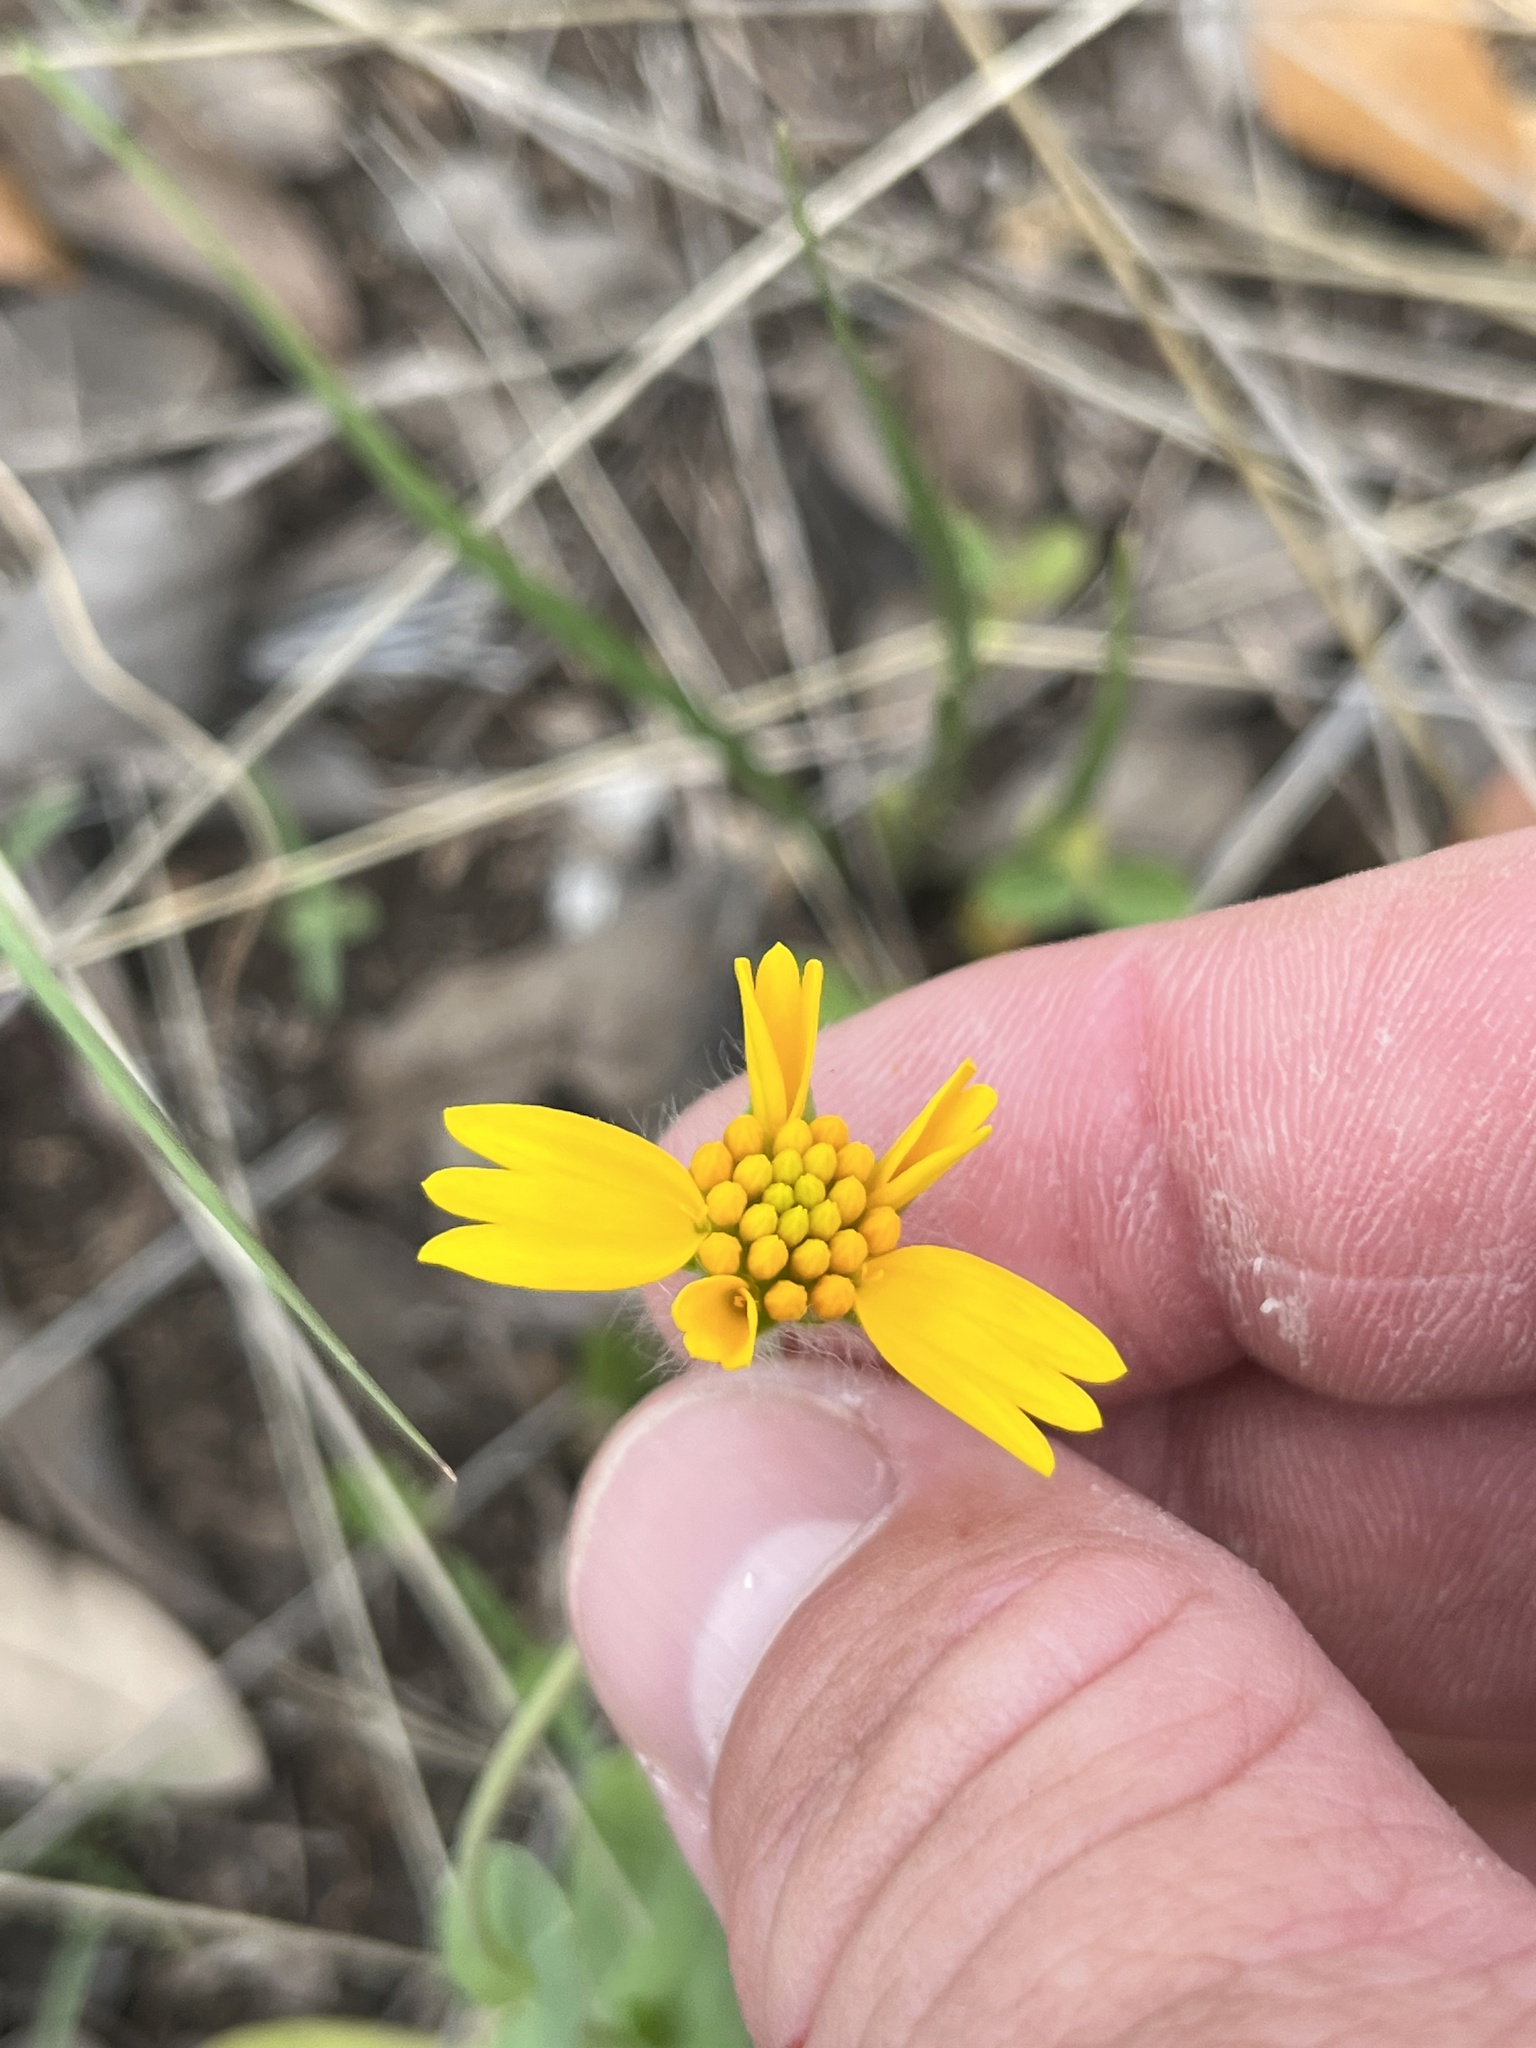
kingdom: Plantae
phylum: Tracheophyta
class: Magnoliopsida
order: Asterales
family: Asteraceae
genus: Amblyolepis
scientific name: Amblyolepis setigera
